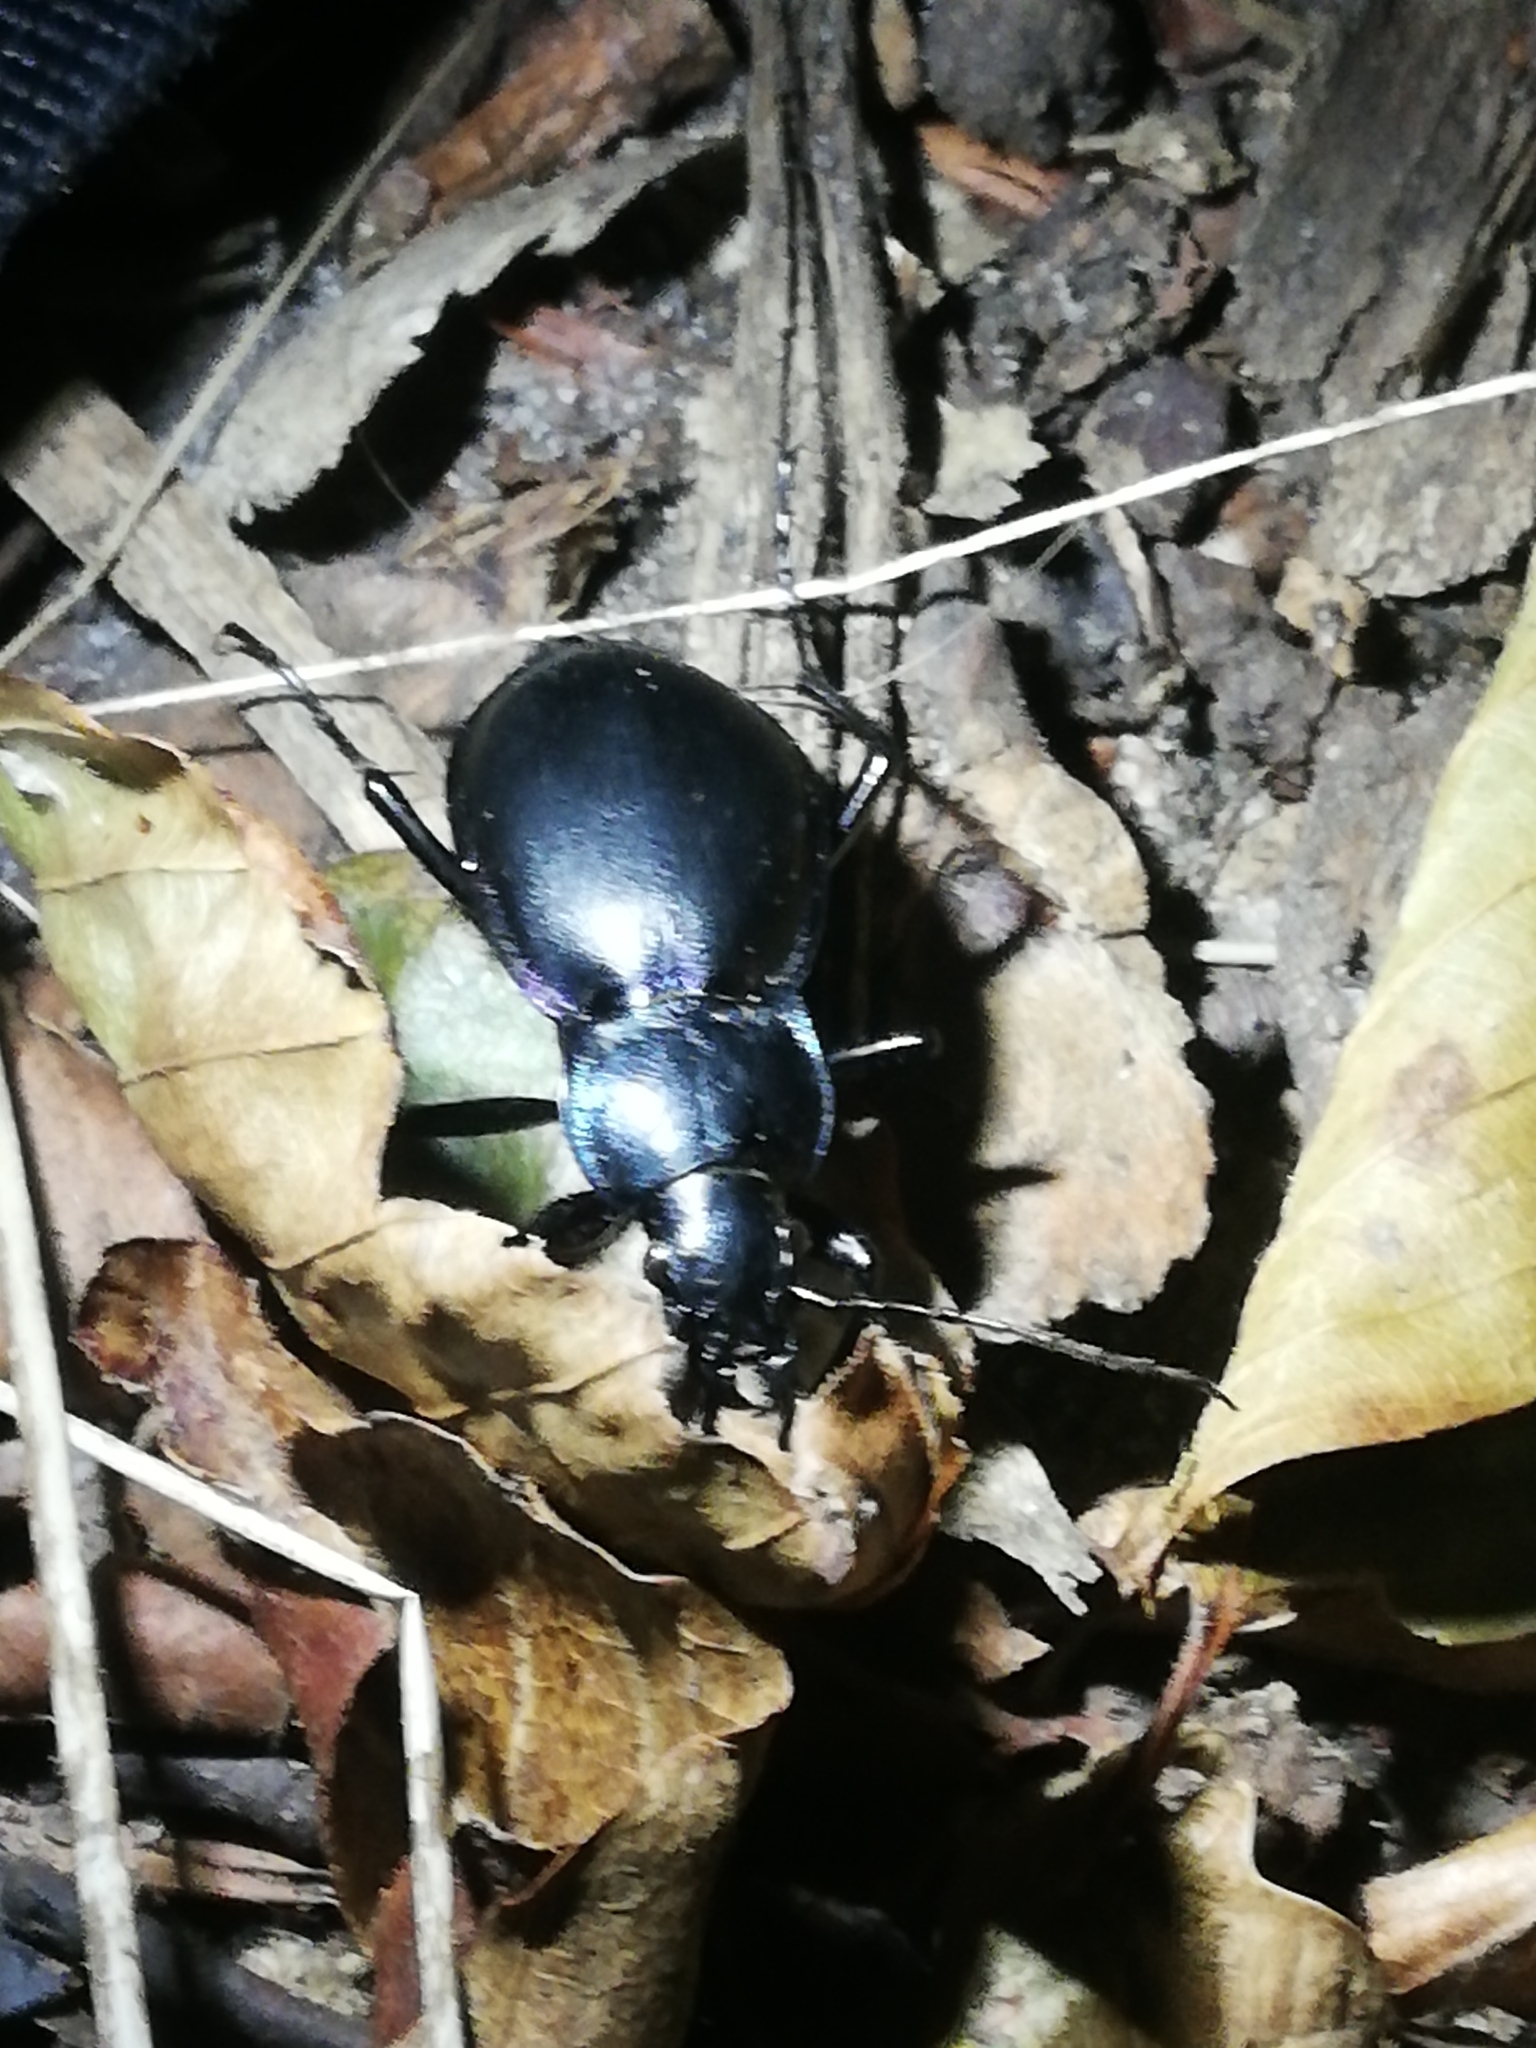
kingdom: Animalia
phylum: Arthropoda
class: Insecta
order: Coleoptera
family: Carabidae
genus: Carabus
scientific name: Carabus violaceus
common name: Violet ground beetle
